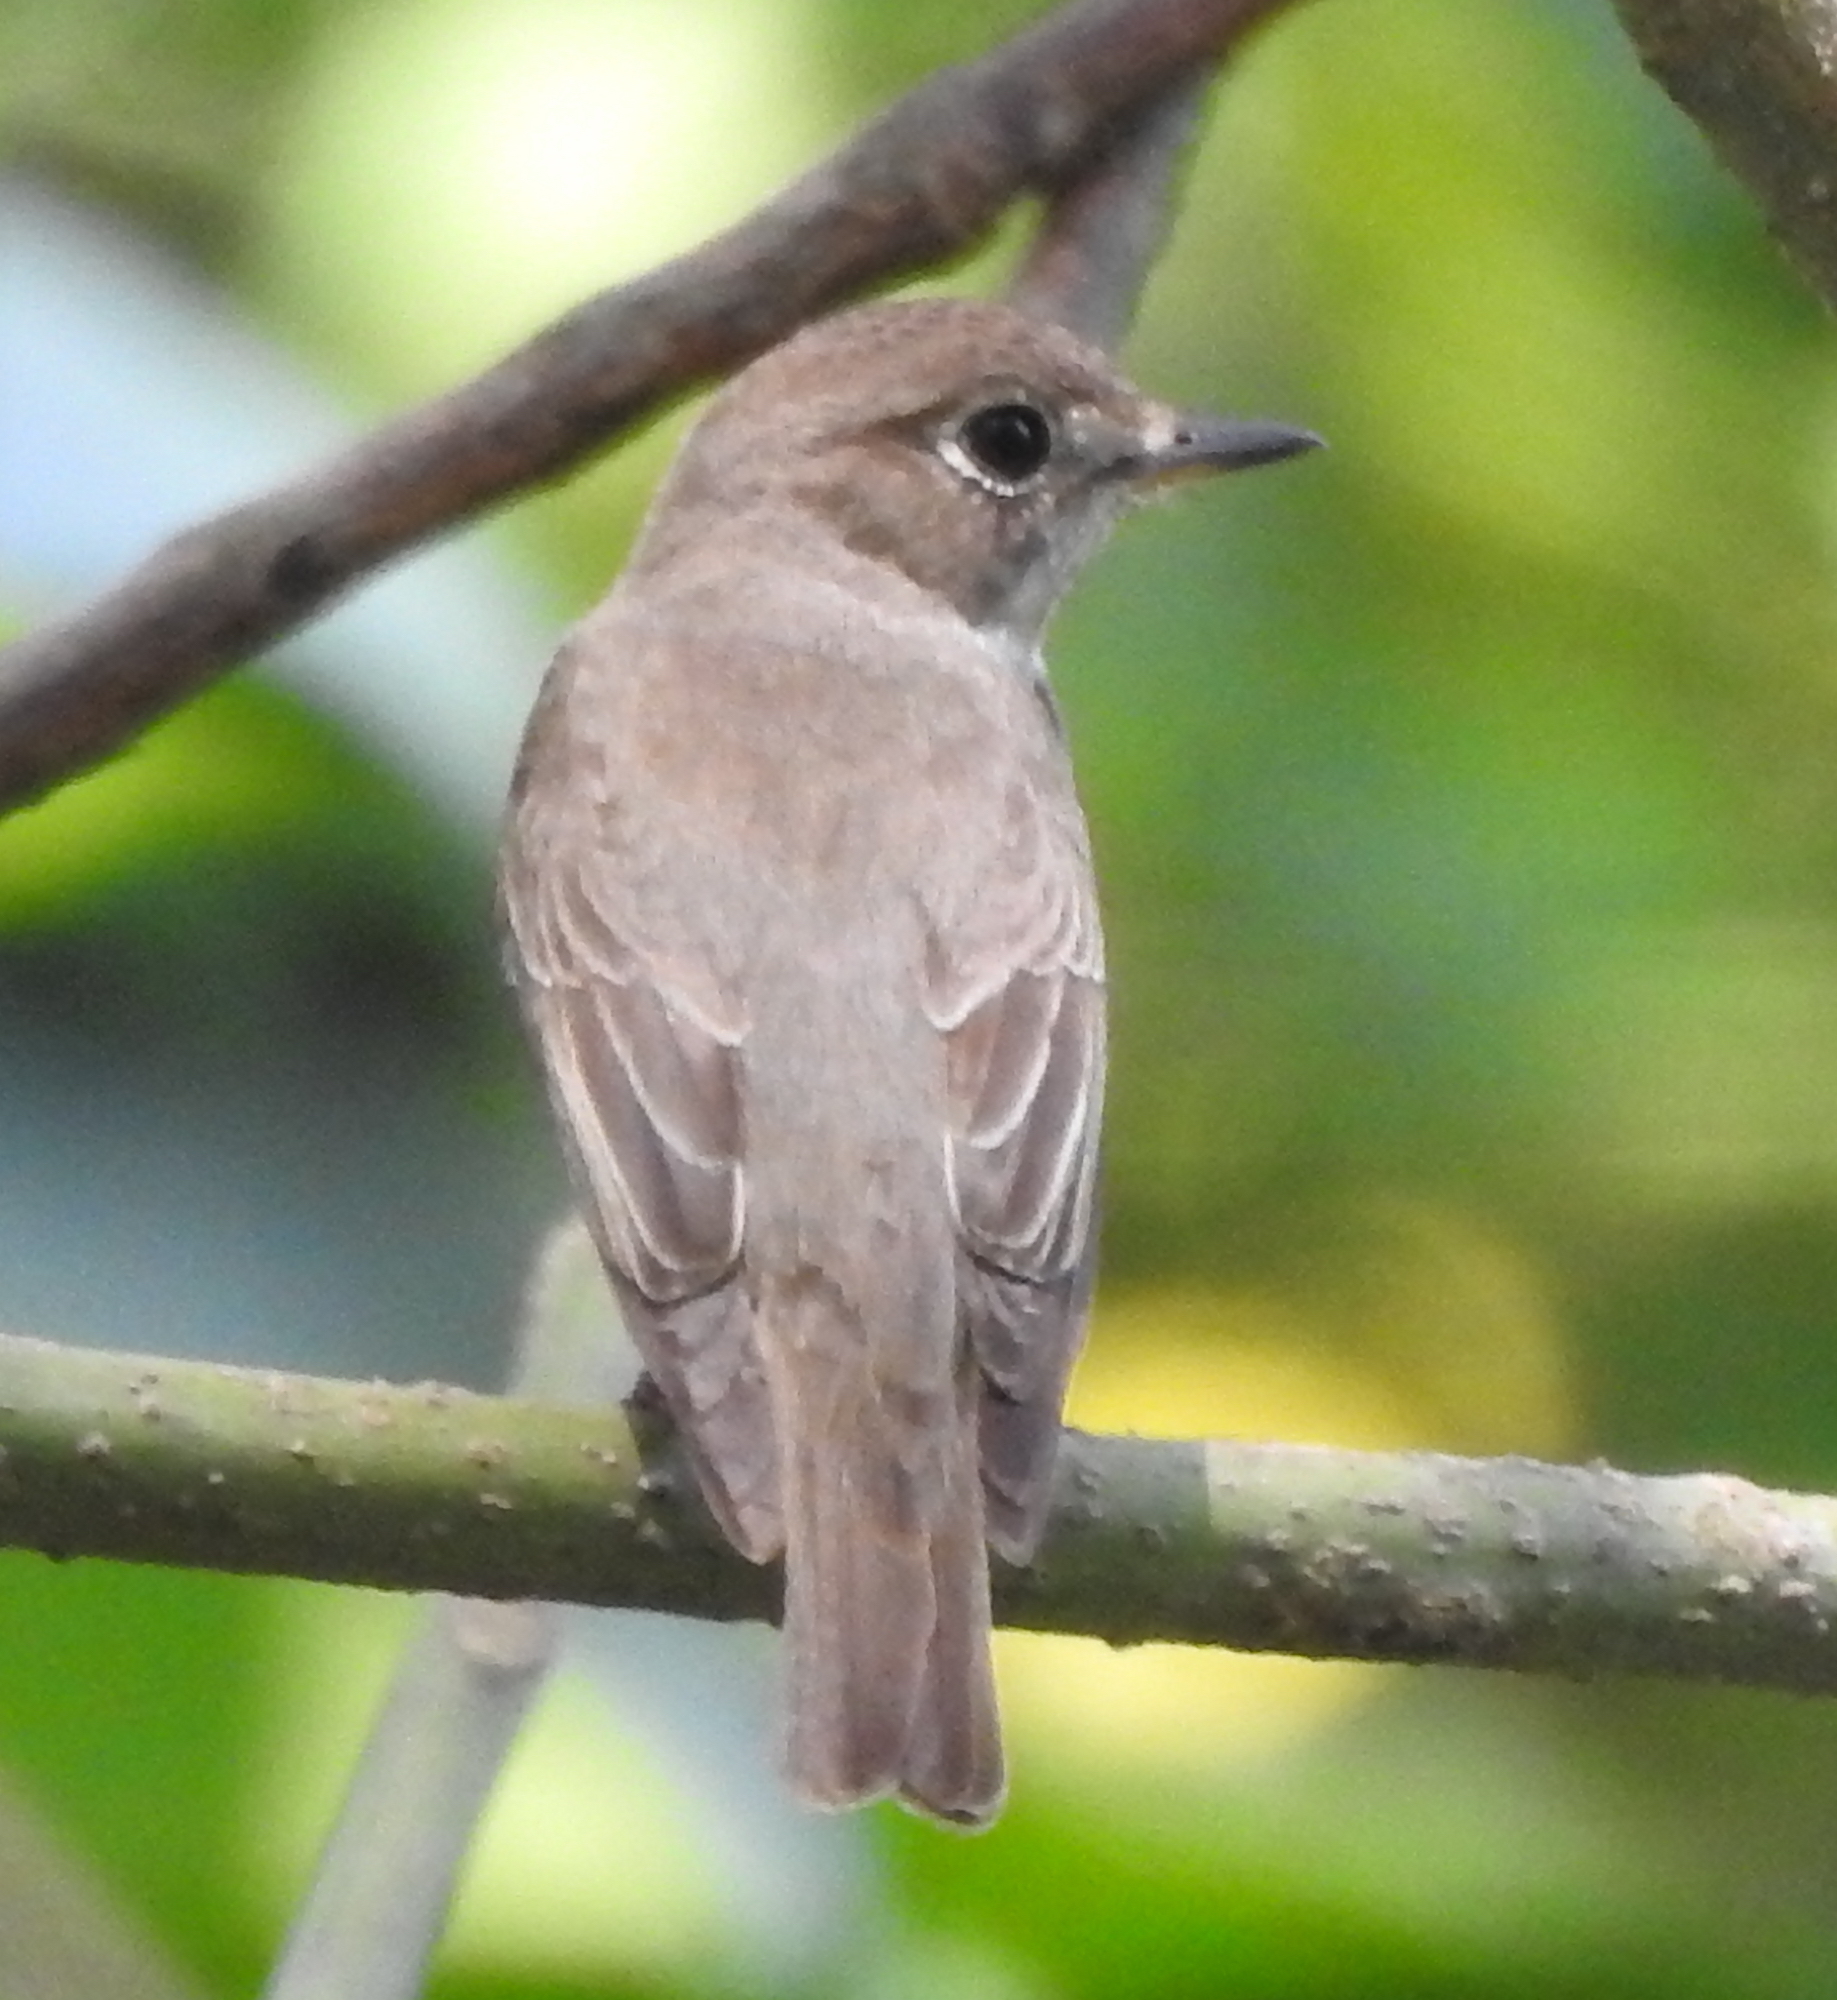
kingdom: Animalia
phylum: Chordata
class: Aves
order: Passeriformes
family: Muscicapidae
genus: Muscicapa
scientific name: Muscicapa latirostris
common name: Asian brown flycatcher
